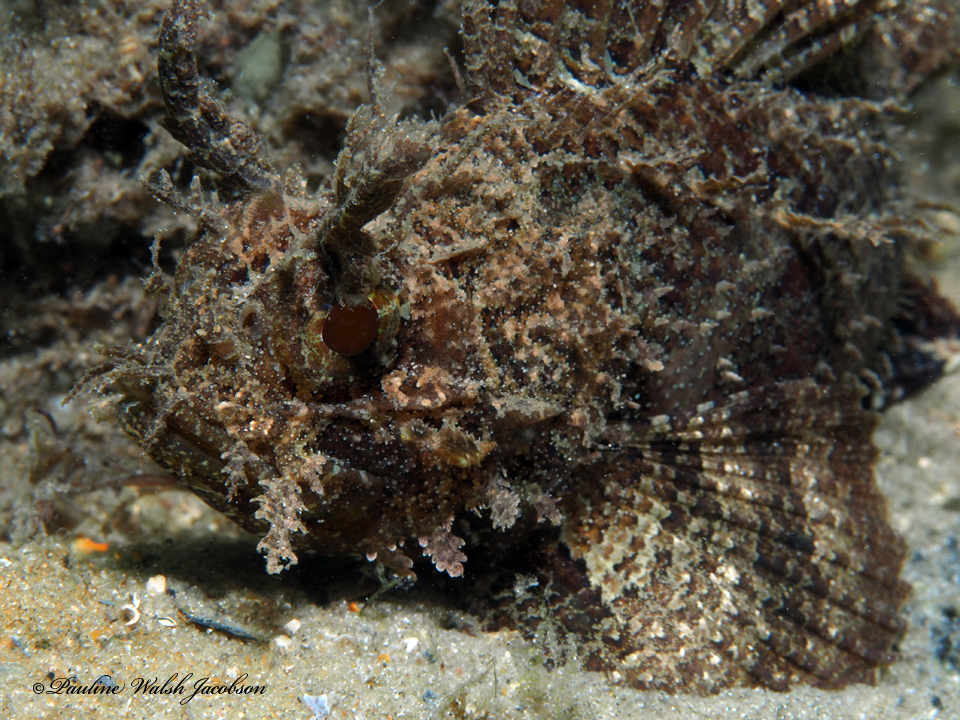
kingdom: Animalia
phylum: Chordata
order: Scorpaeniformes
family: Scorpaenidae
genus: Scorpaena
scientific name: Scorpaena grandicornis
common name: Plumed scorpionfish
